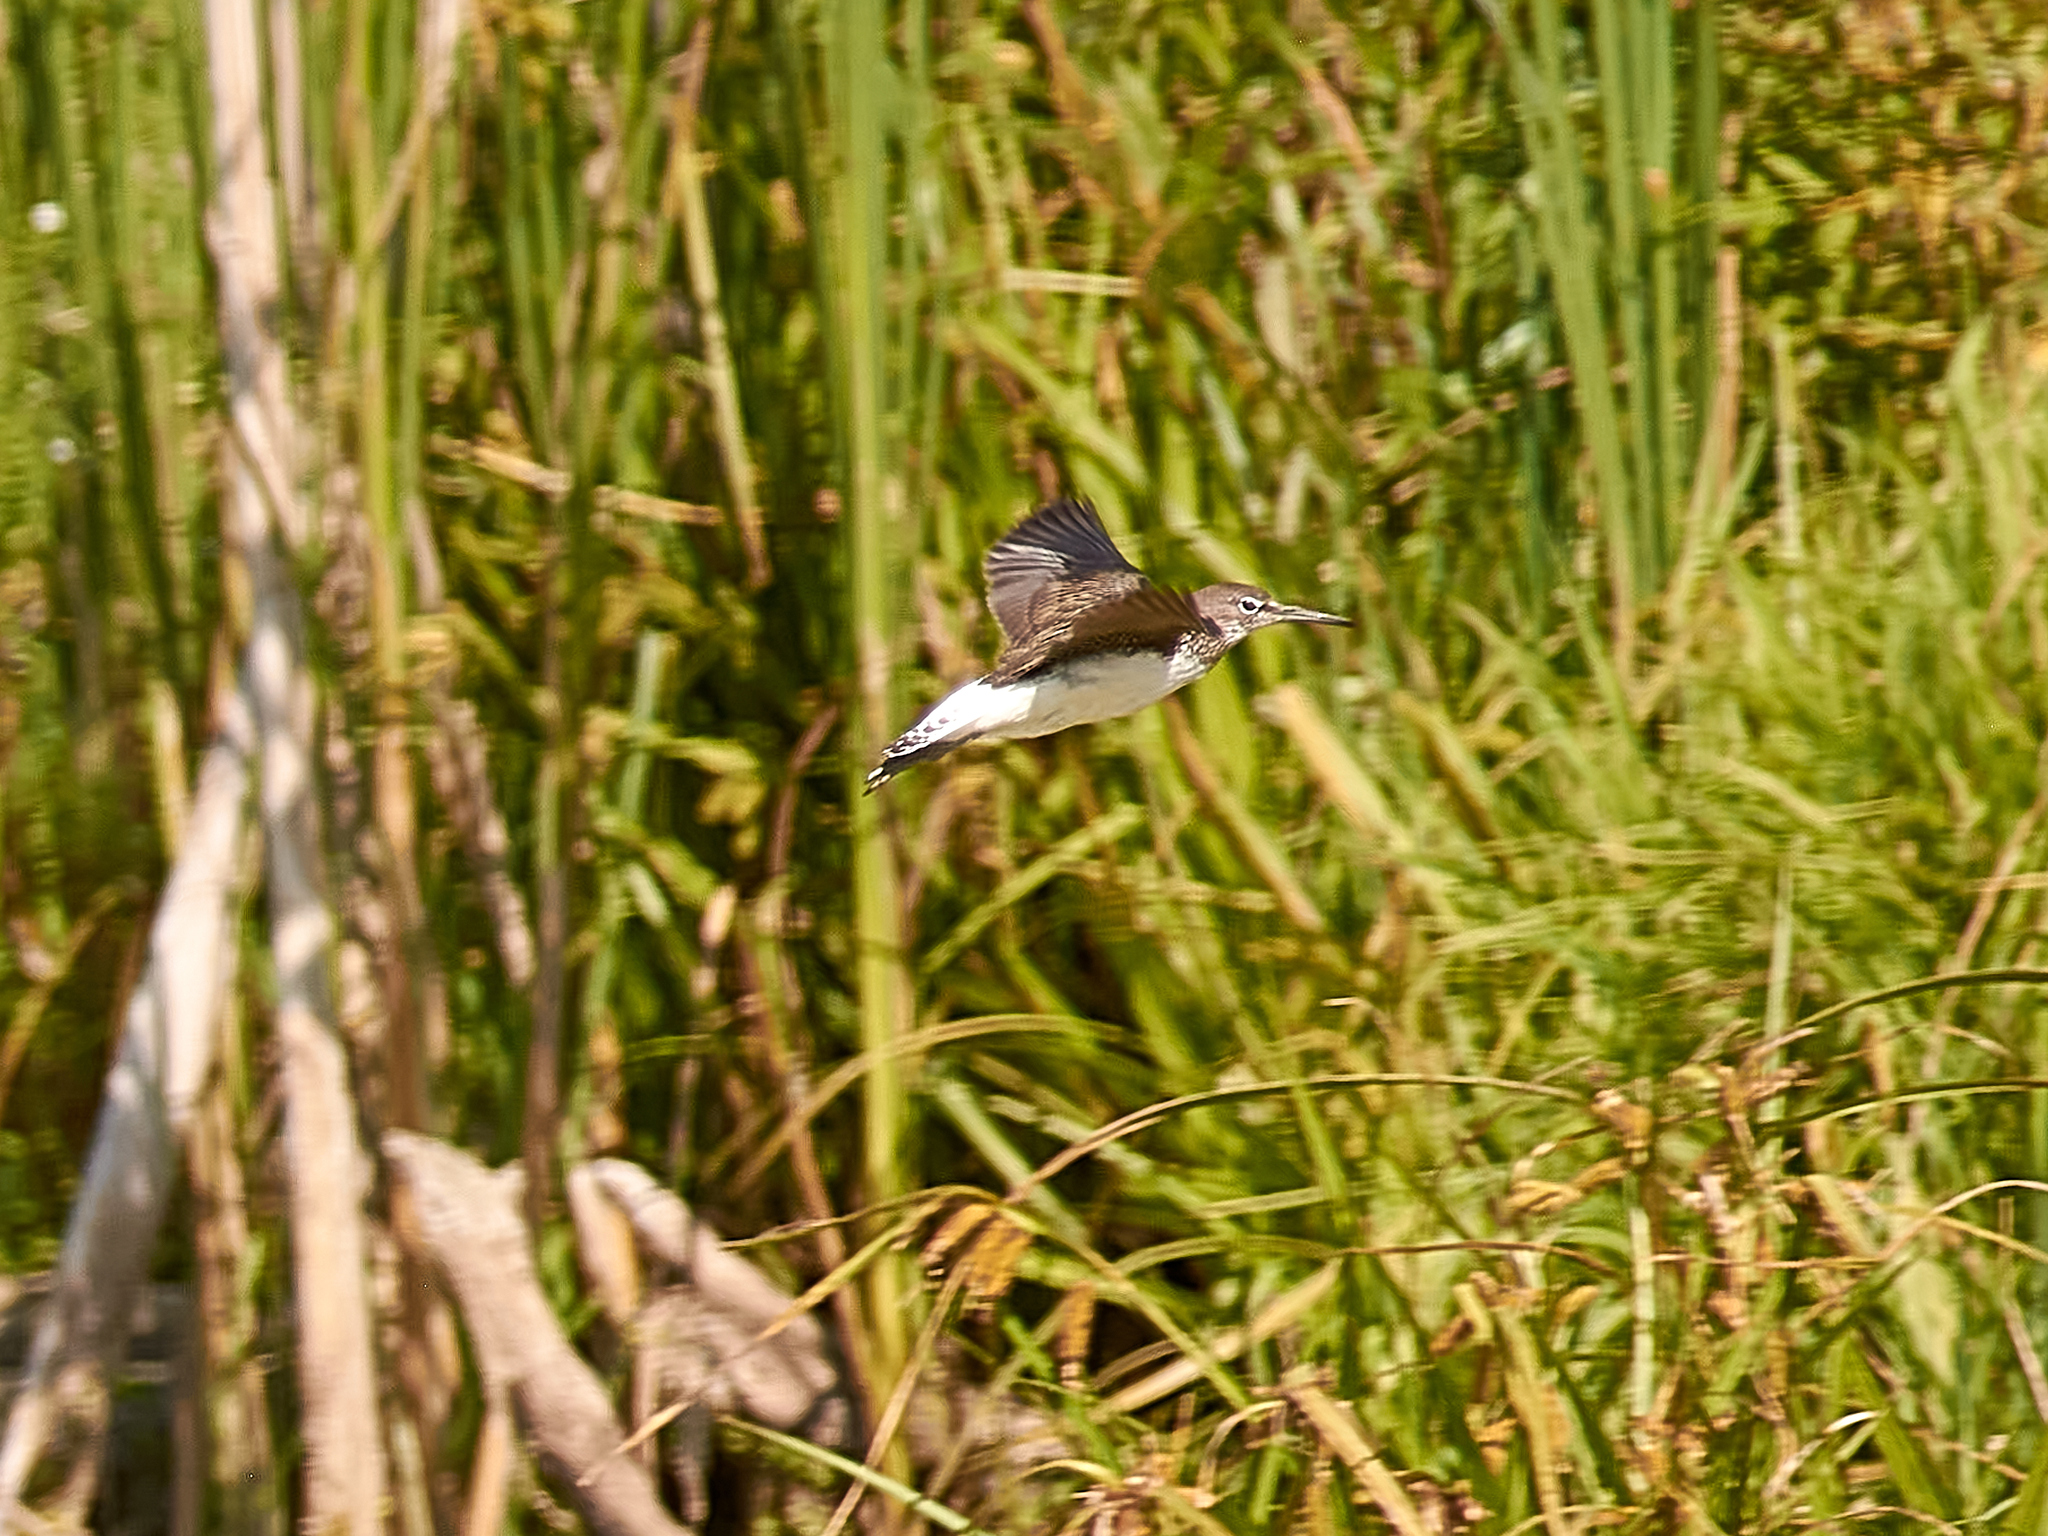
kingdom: Animalia
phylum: Chordata
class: Aves
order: Charadriiformes
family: Scolopacidae
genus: Tringa
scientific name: Tringa ochropus
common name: Green sandpiper
